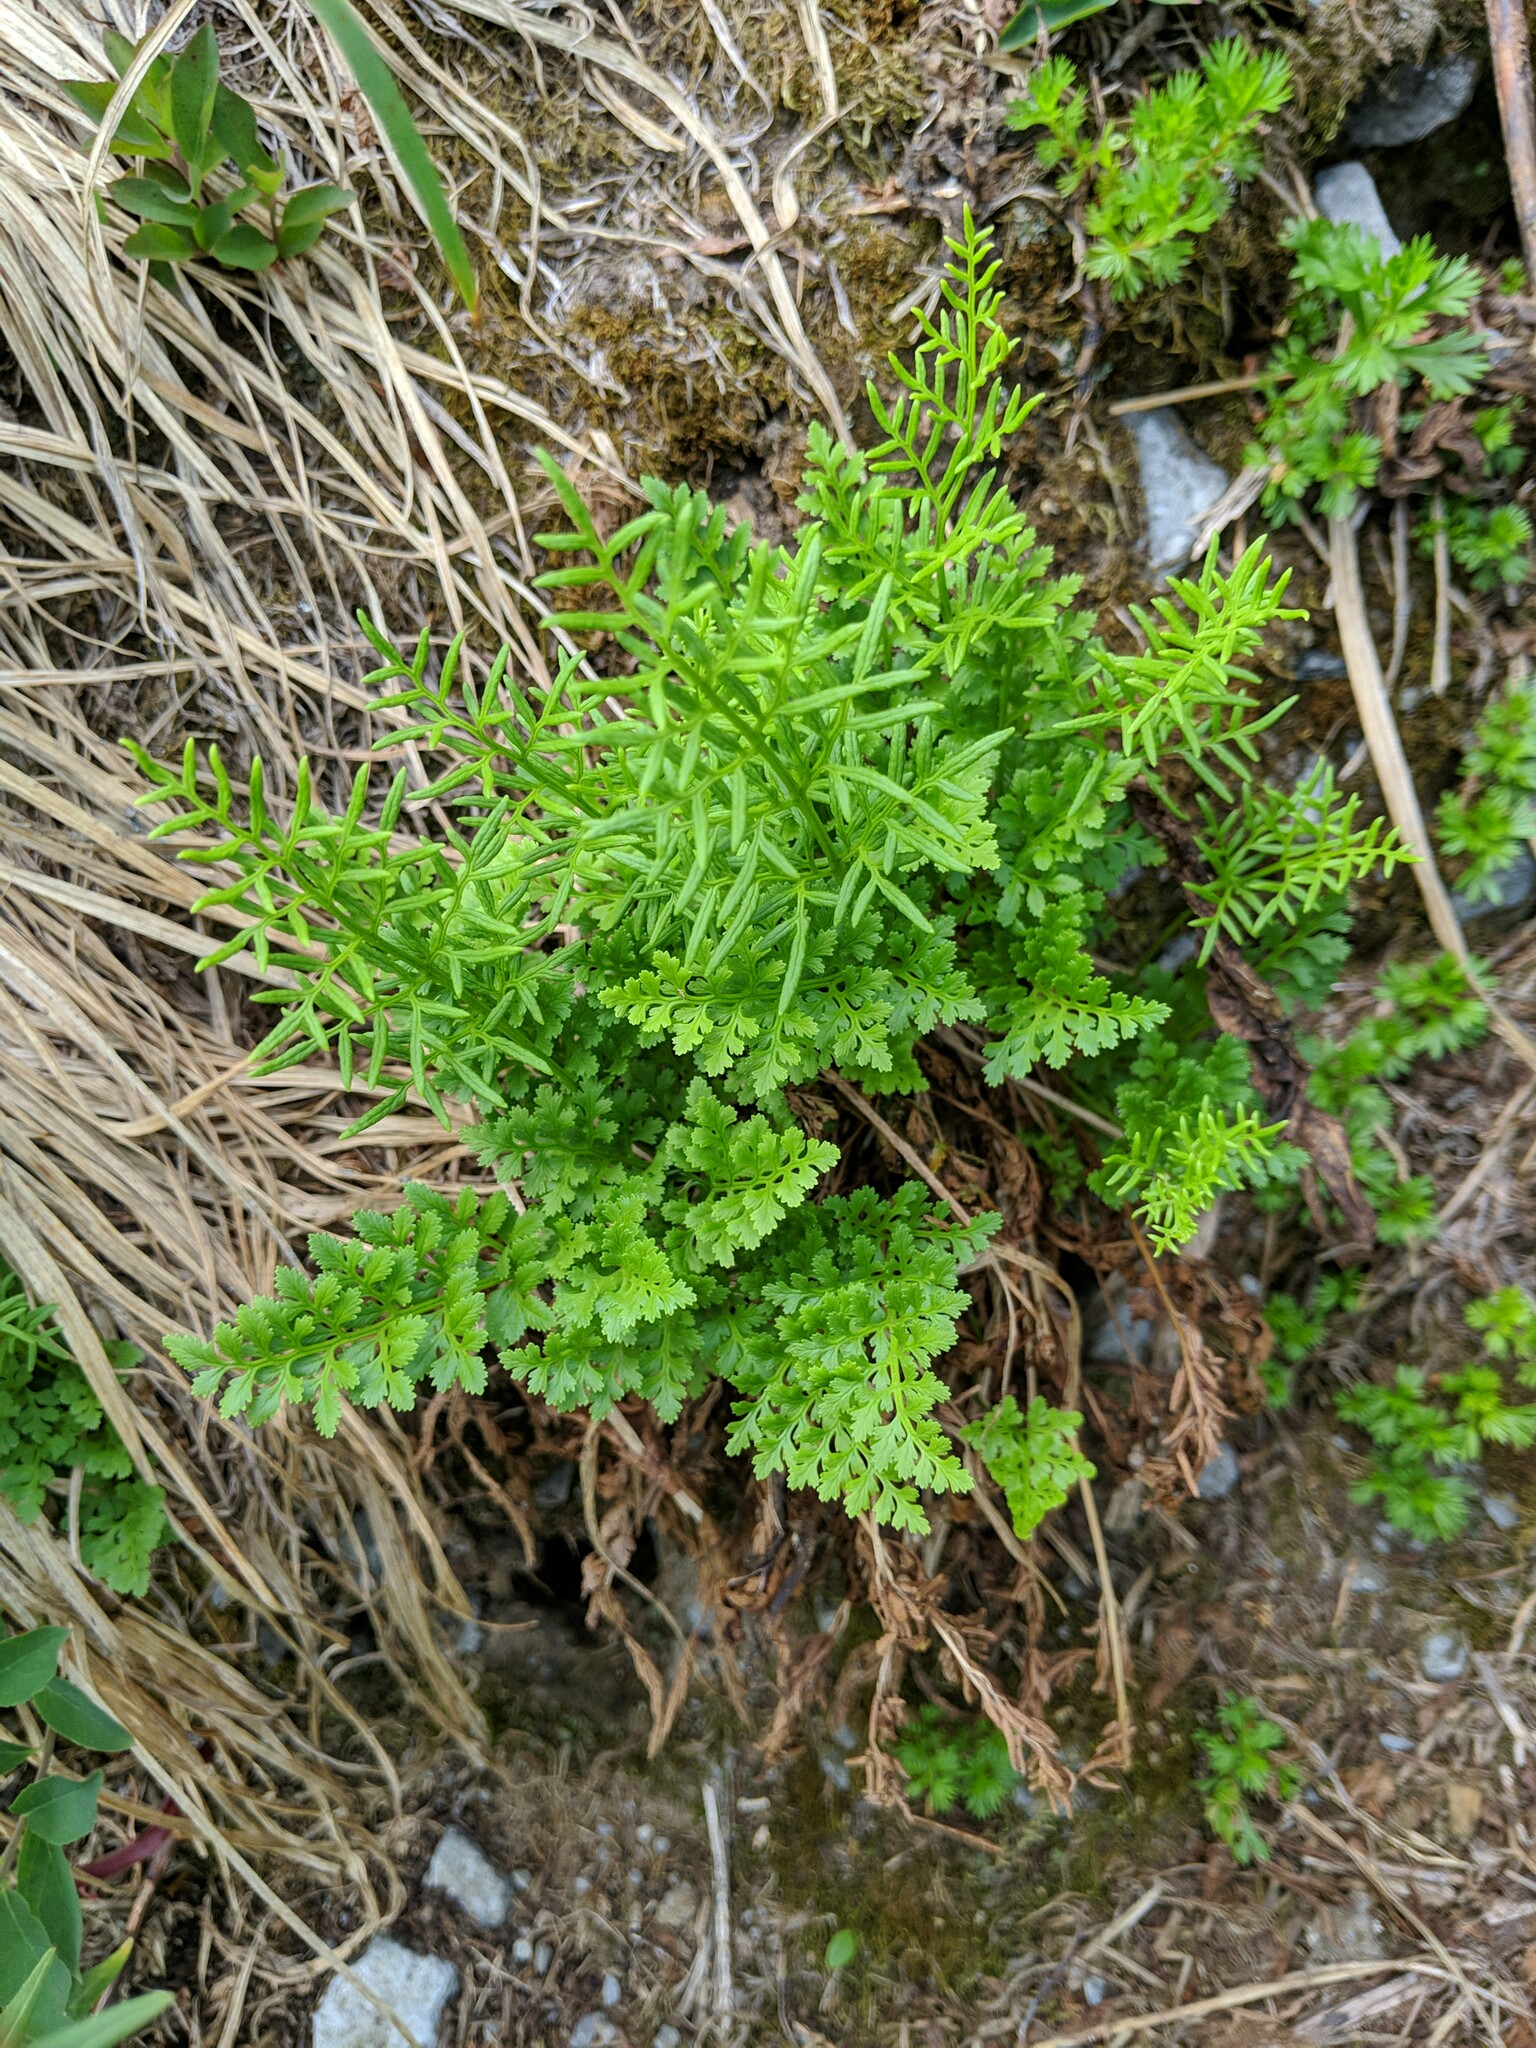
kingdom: Plantae
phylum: Tracheophyta
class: Polypodiopsida
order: Polypodiales
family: Pteridaceae
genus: Cryptogramma
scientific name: Cryptogramma acrostichoides
